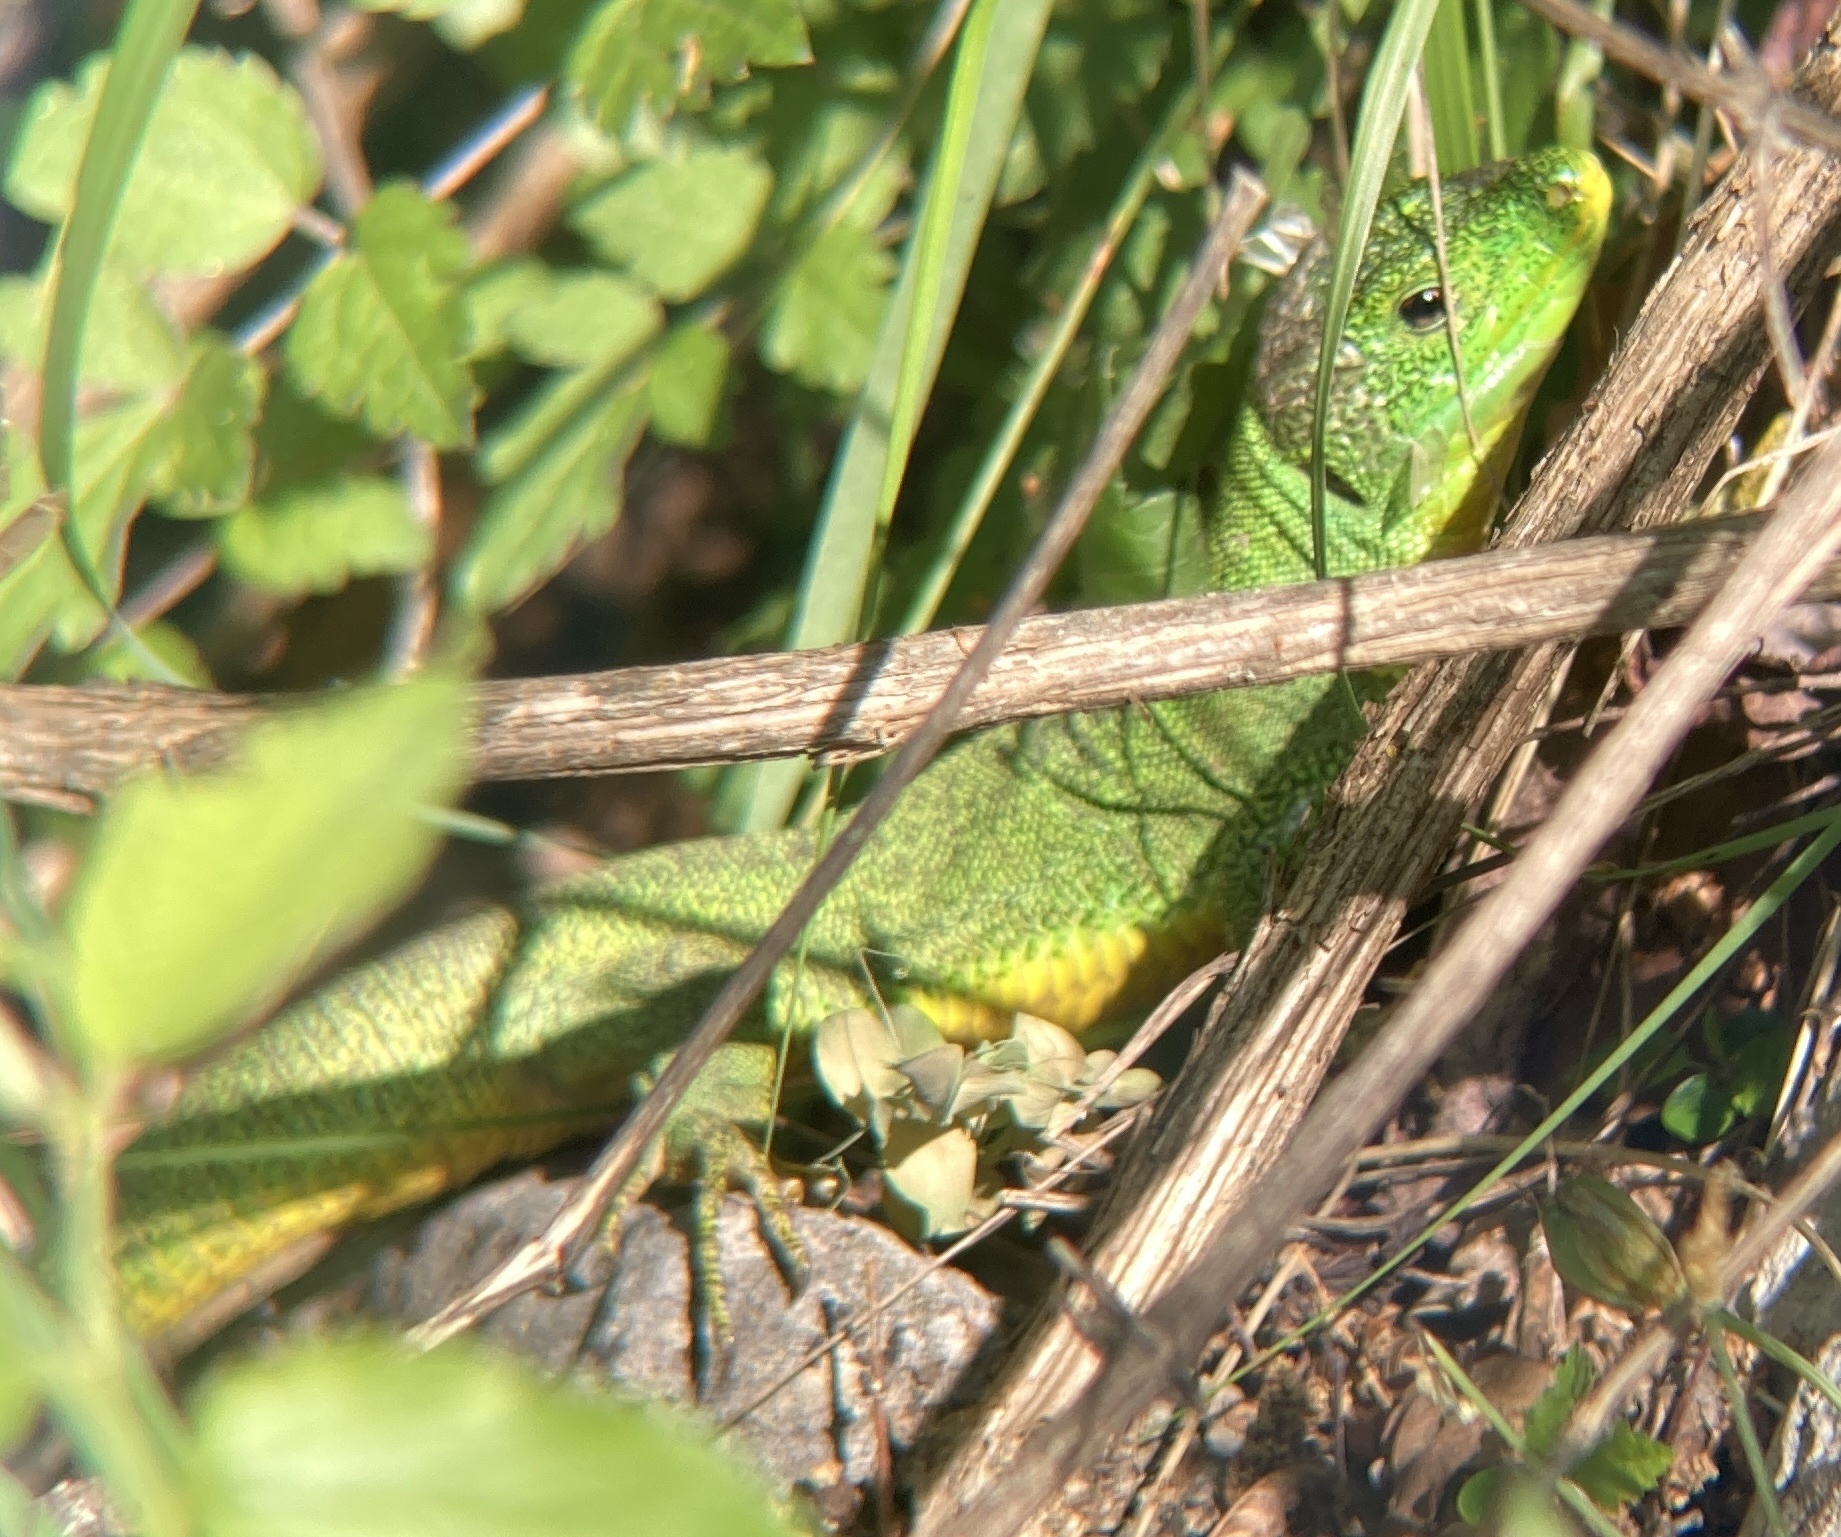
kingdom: Animalia
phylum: Chordata
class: Squamata
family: Lacertidae
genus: Lacerta
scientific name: Lacerta trilineata
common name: Balkan green lizard
